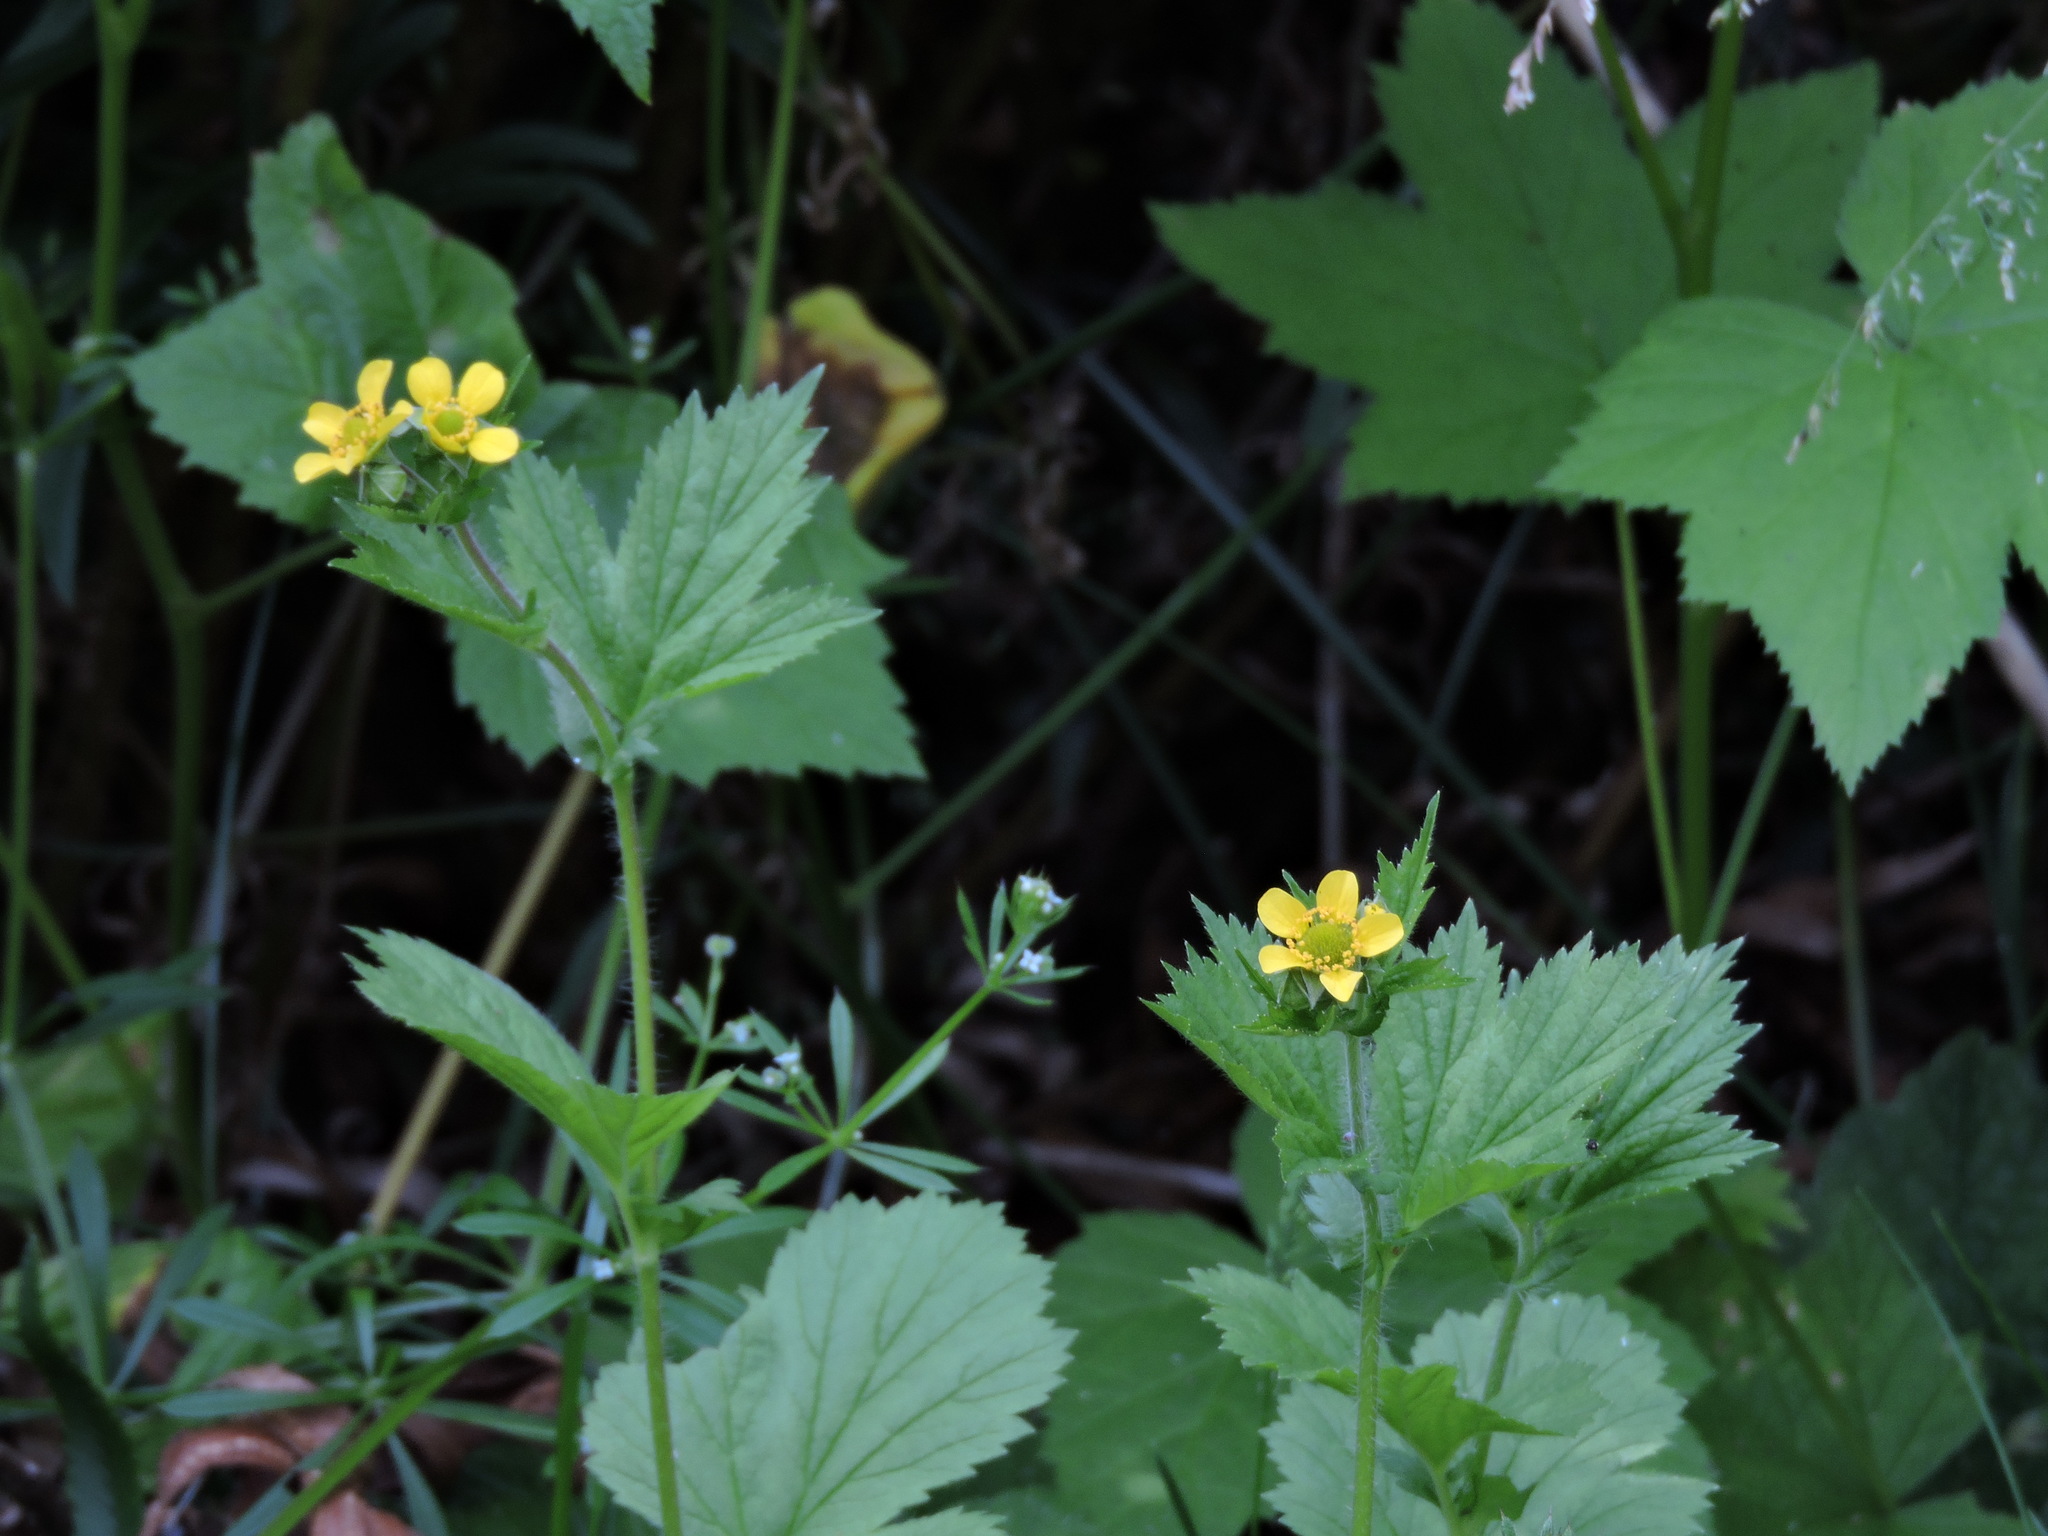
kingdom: Plantae
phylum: Tracheophyta
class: Magnoliopsida
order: Rosales
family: Rosaceae
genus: Geum
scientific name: Geum macrophyllum
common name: Large-leaved avens
